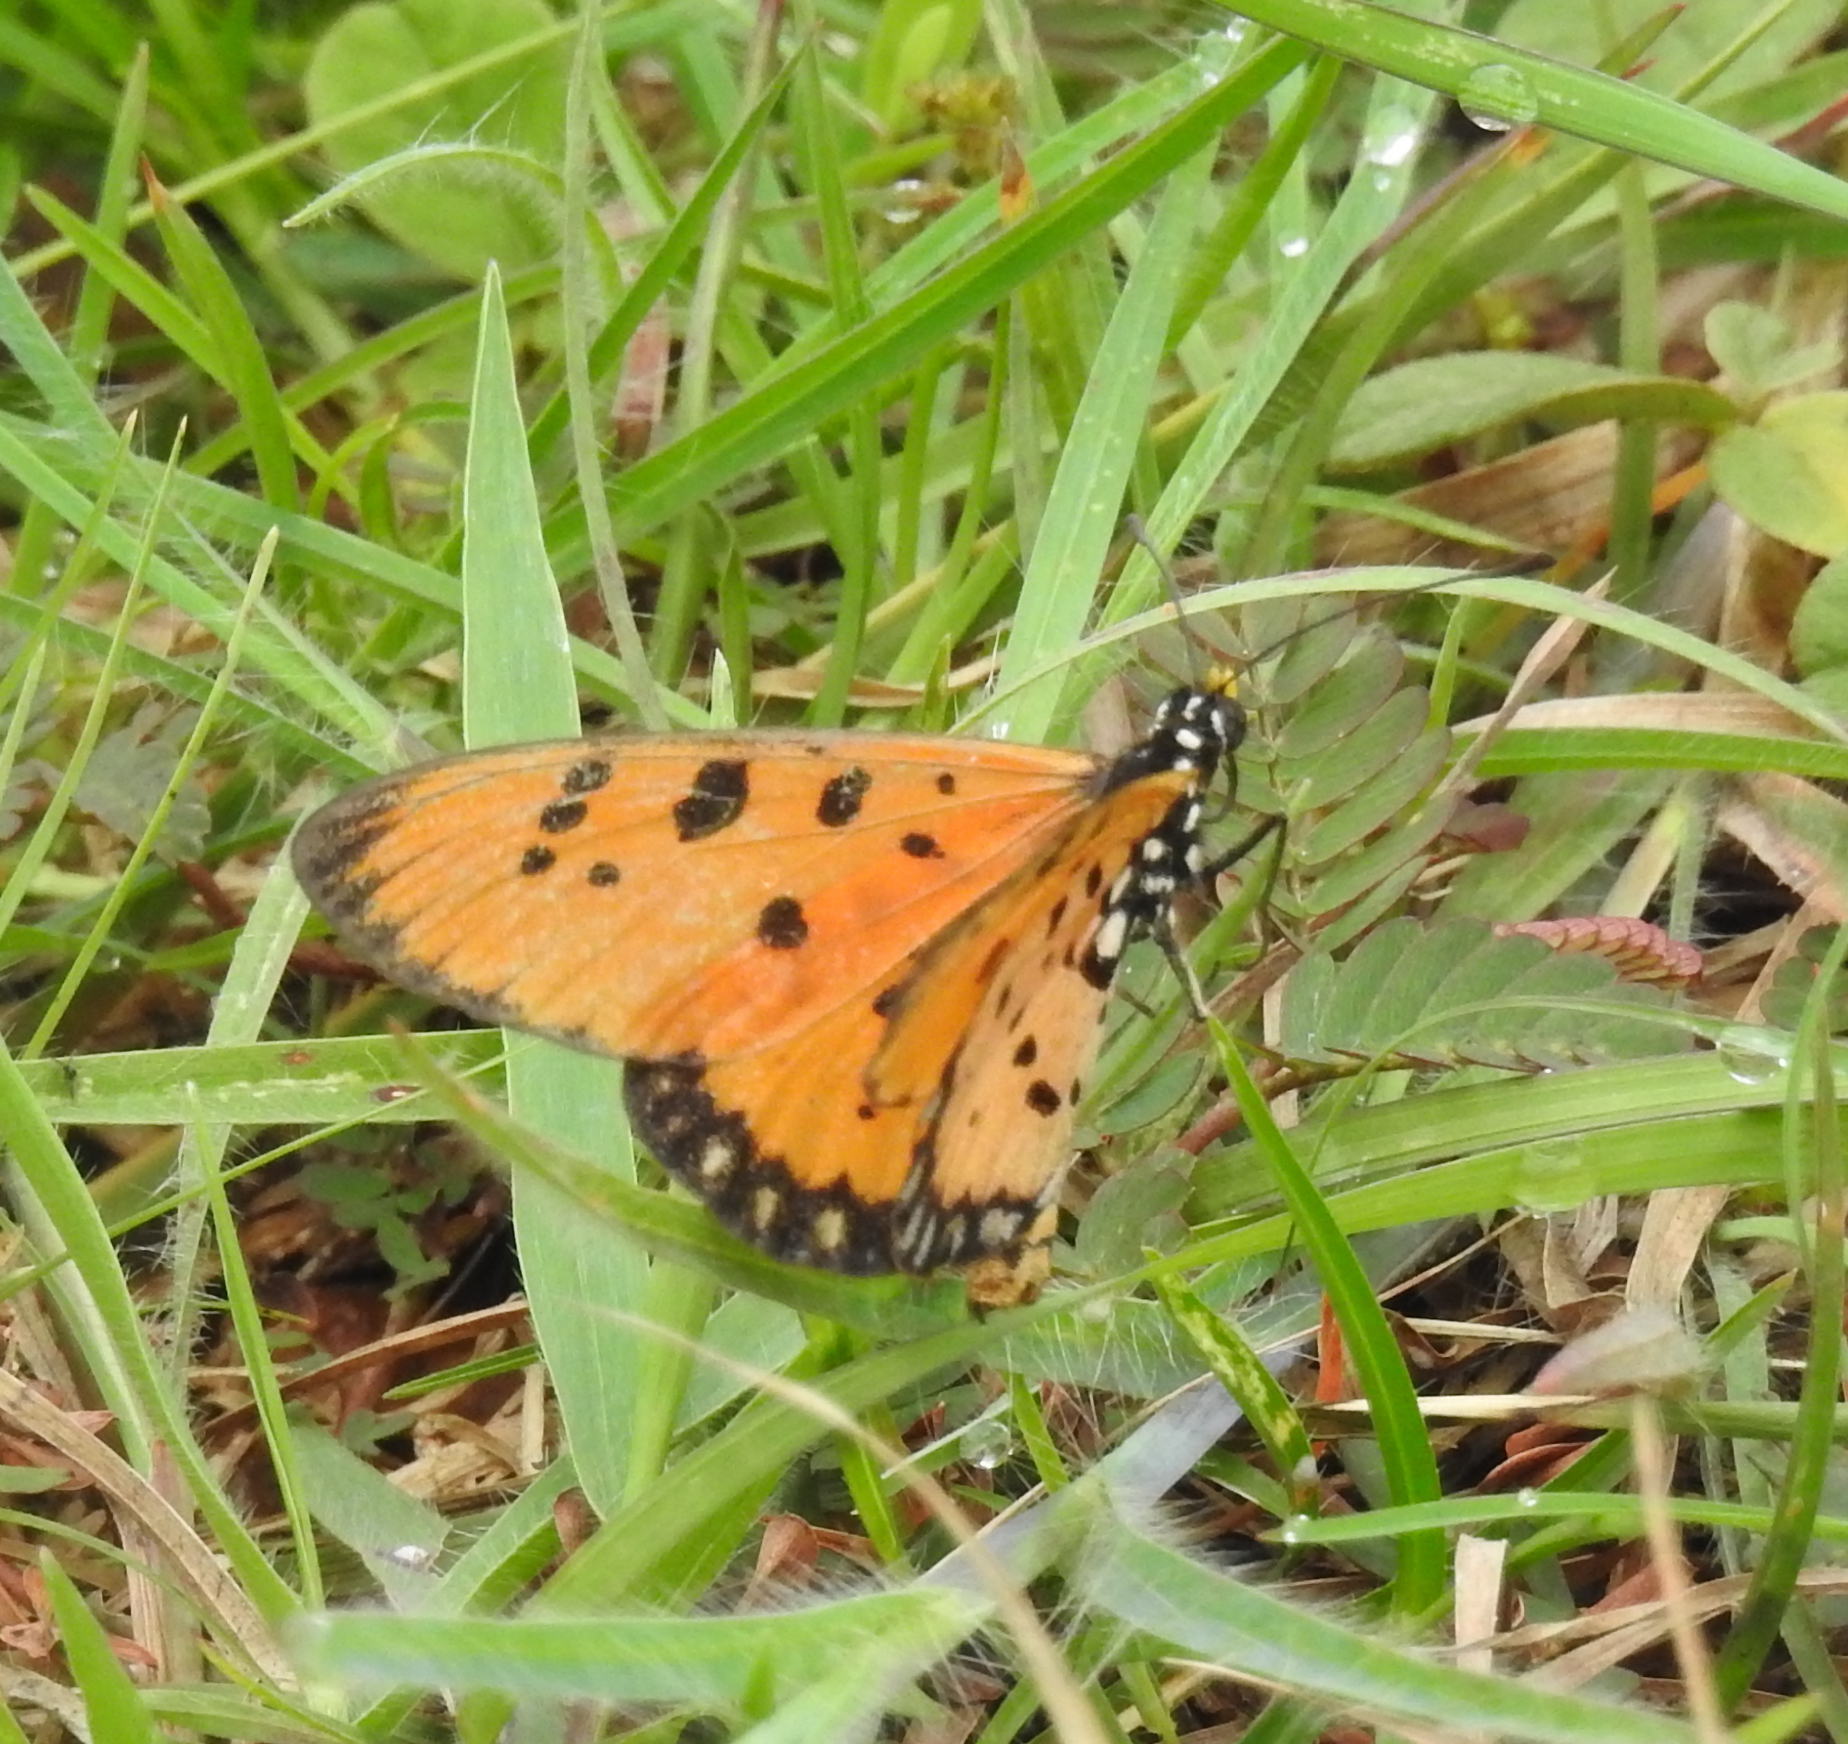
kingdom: Animalia
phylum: Arthropoda
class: Insecta
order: Lepidoptera
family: Nymphalidae
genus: Acraea
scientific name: Acraea terpsicore
